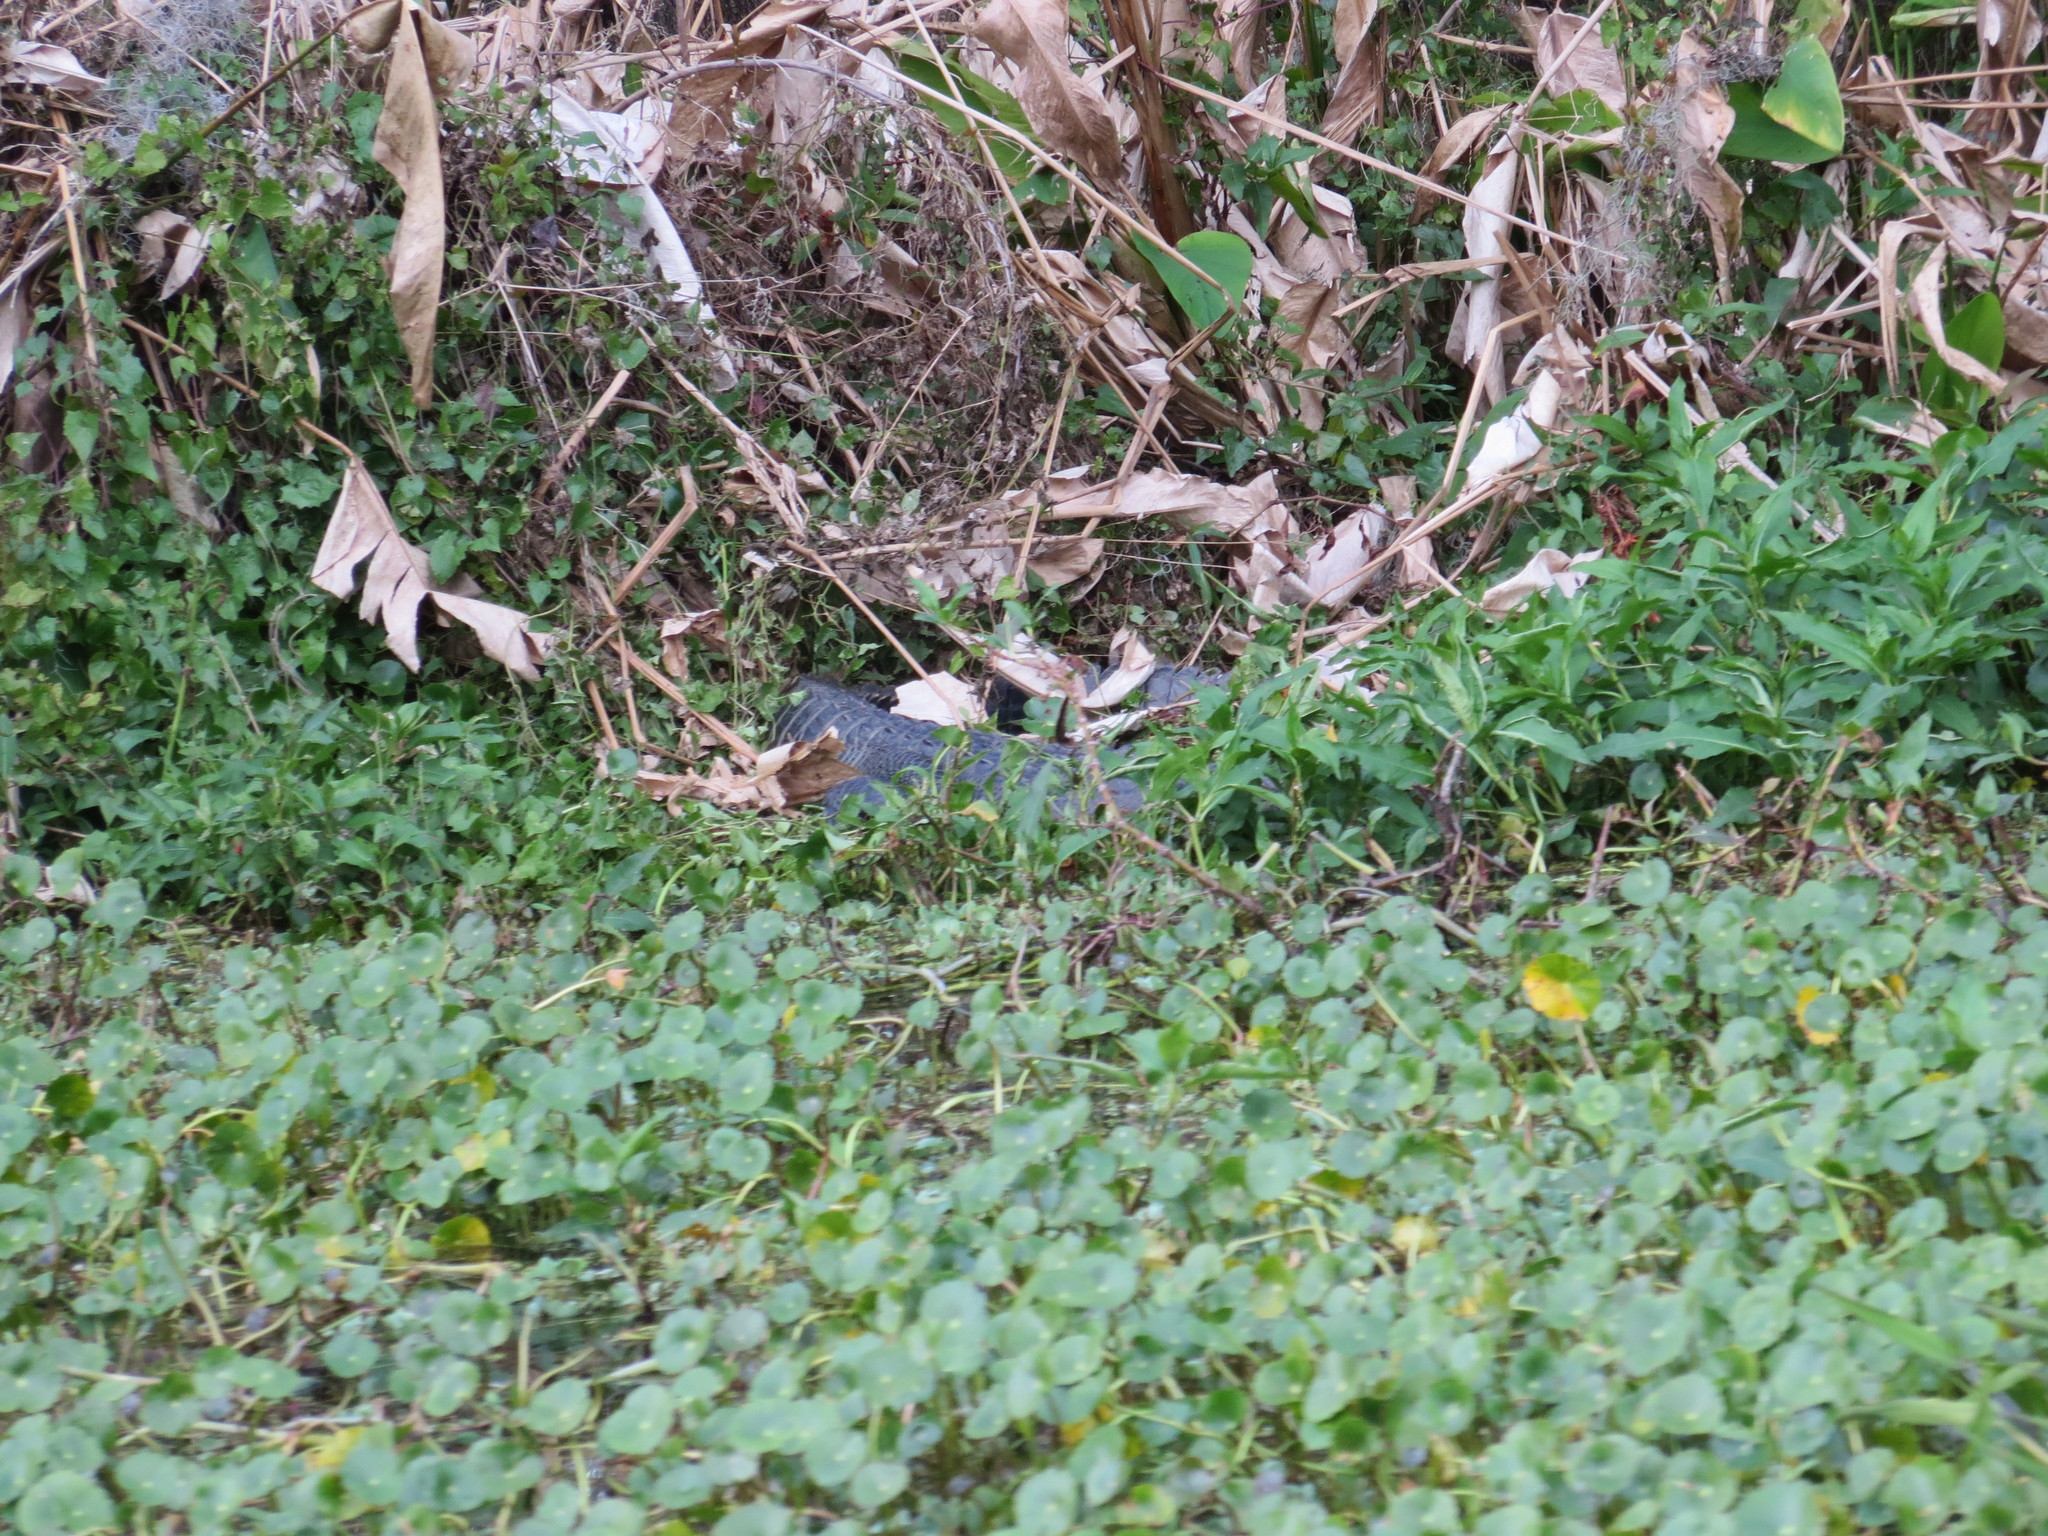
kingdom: Animalia
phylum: Chordata
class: Crocodylia
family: Alligatoridae
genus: Alligator
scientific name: Alligator mississippiensis
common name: American alligator
